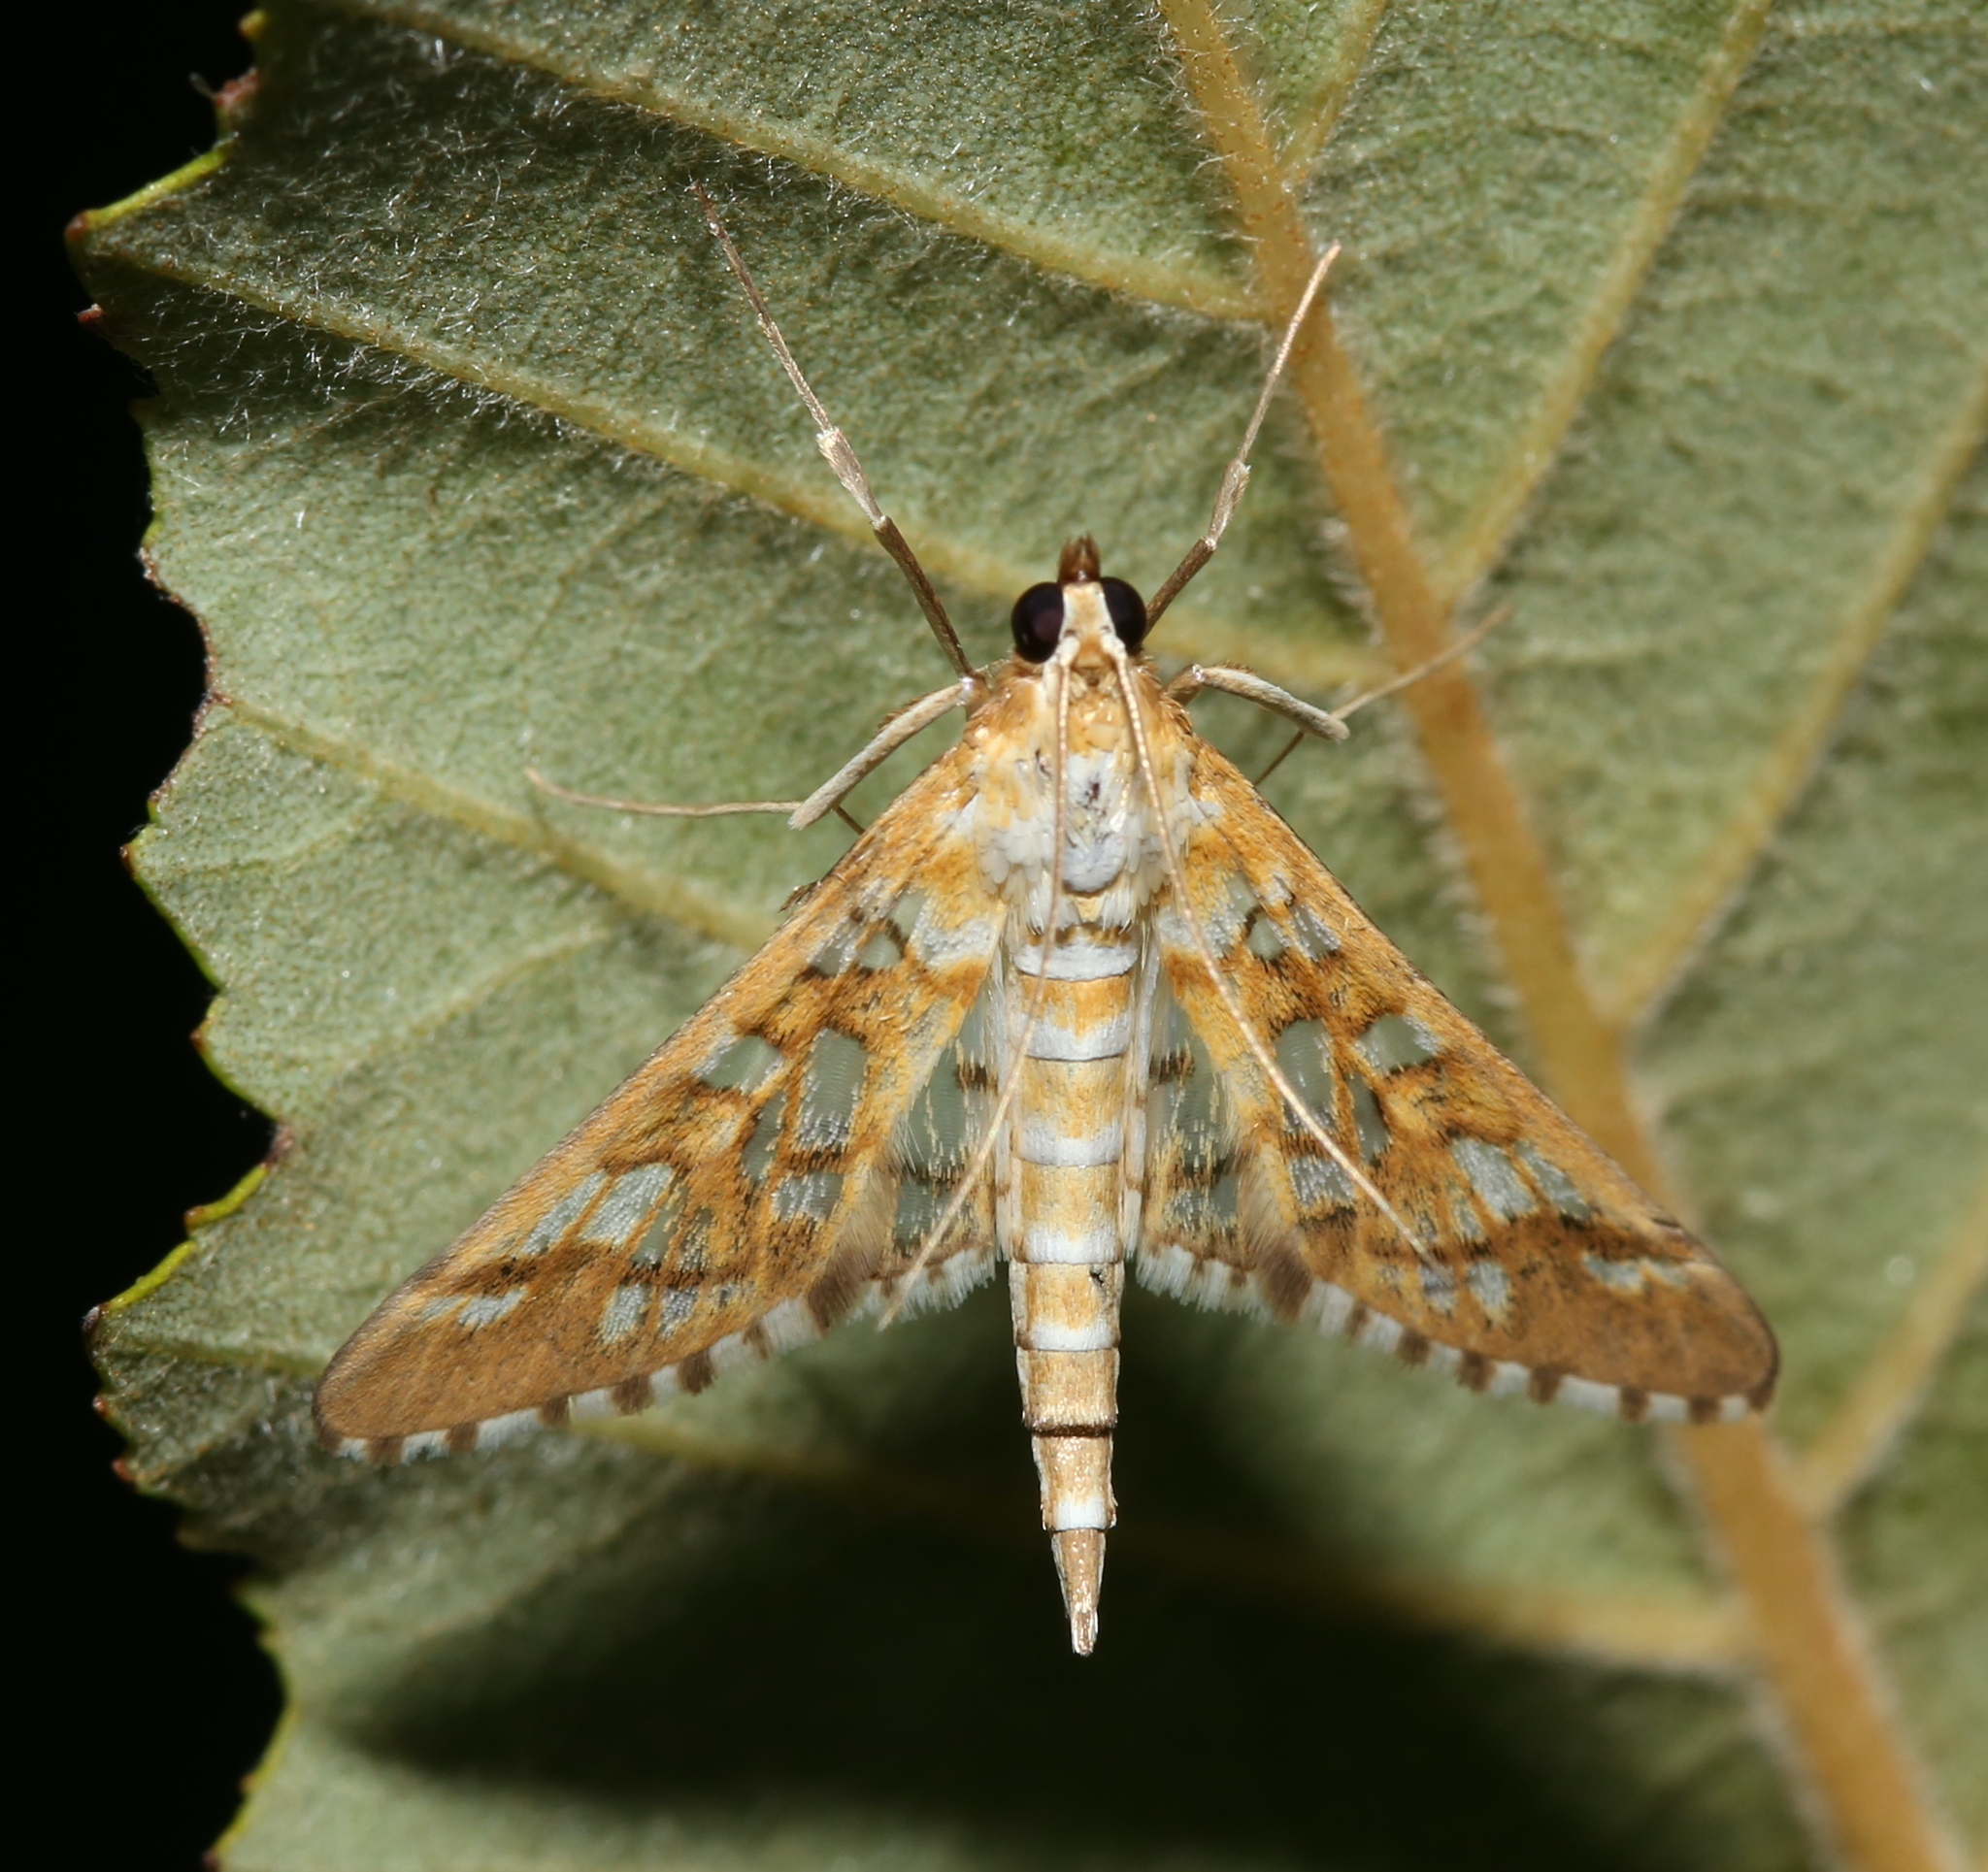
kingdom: Animalia
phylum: Arthropoda
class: Insecta
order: Lepidoptera
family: Crambidae
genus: Epipagis
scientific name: Epipagis fenestralis
